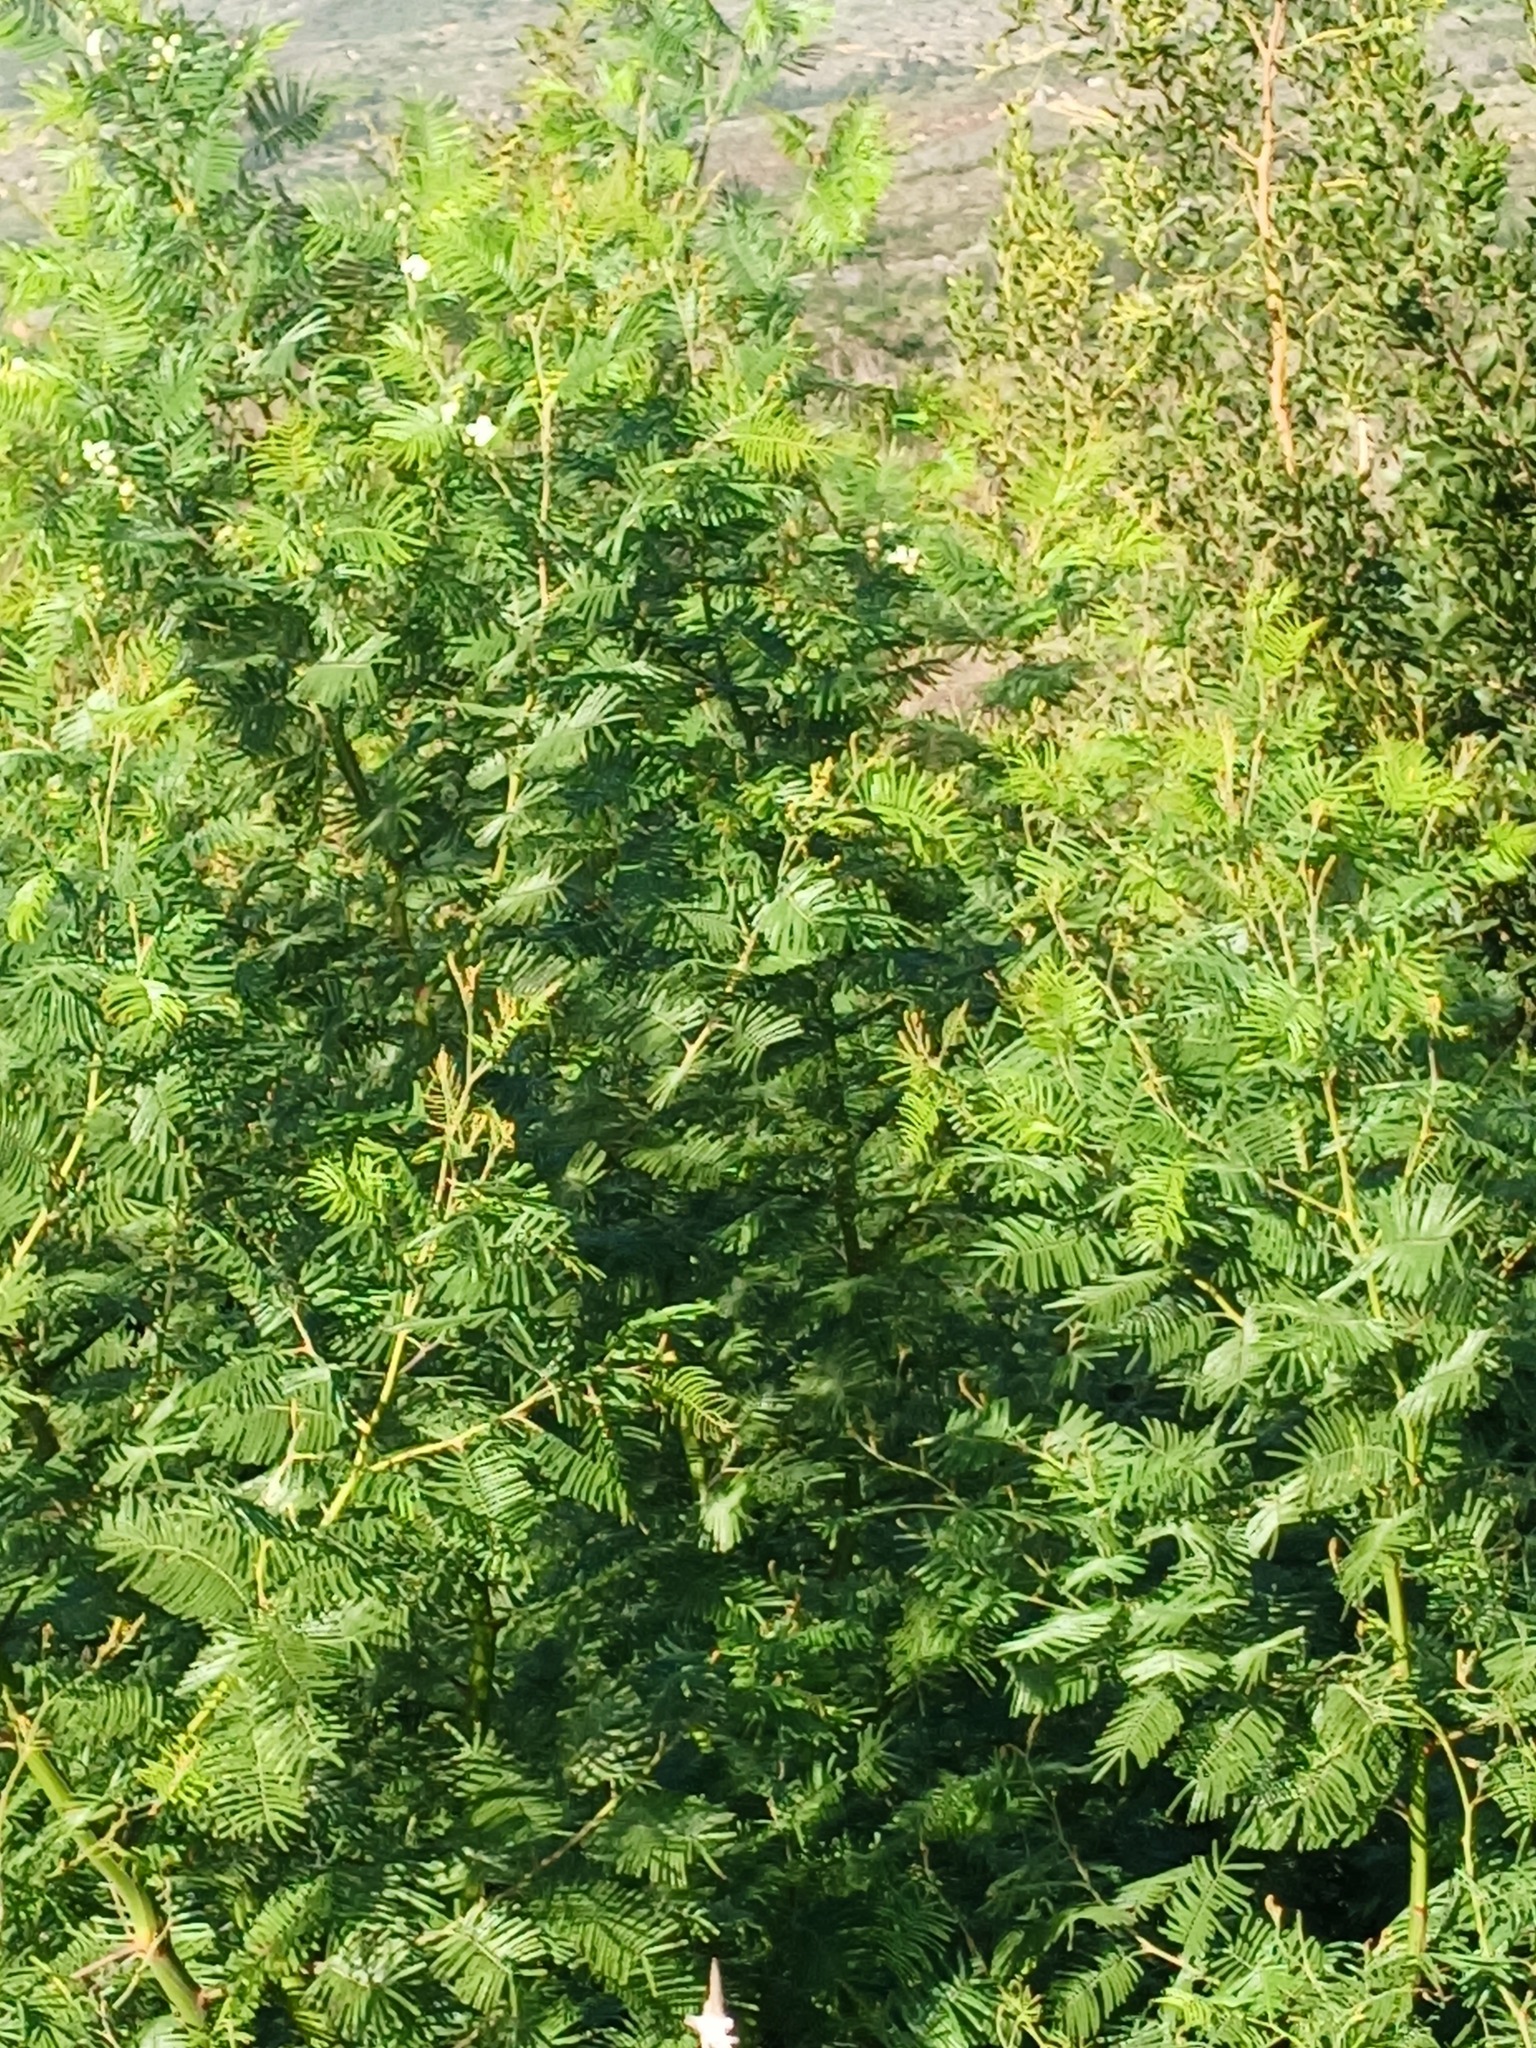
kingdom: Plantae
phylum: Tracheophyta
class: Magnoliopsida
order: Fabales
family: Fabaceae
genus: Acacia
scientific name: Acacia mearnsii
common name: Black wattle
